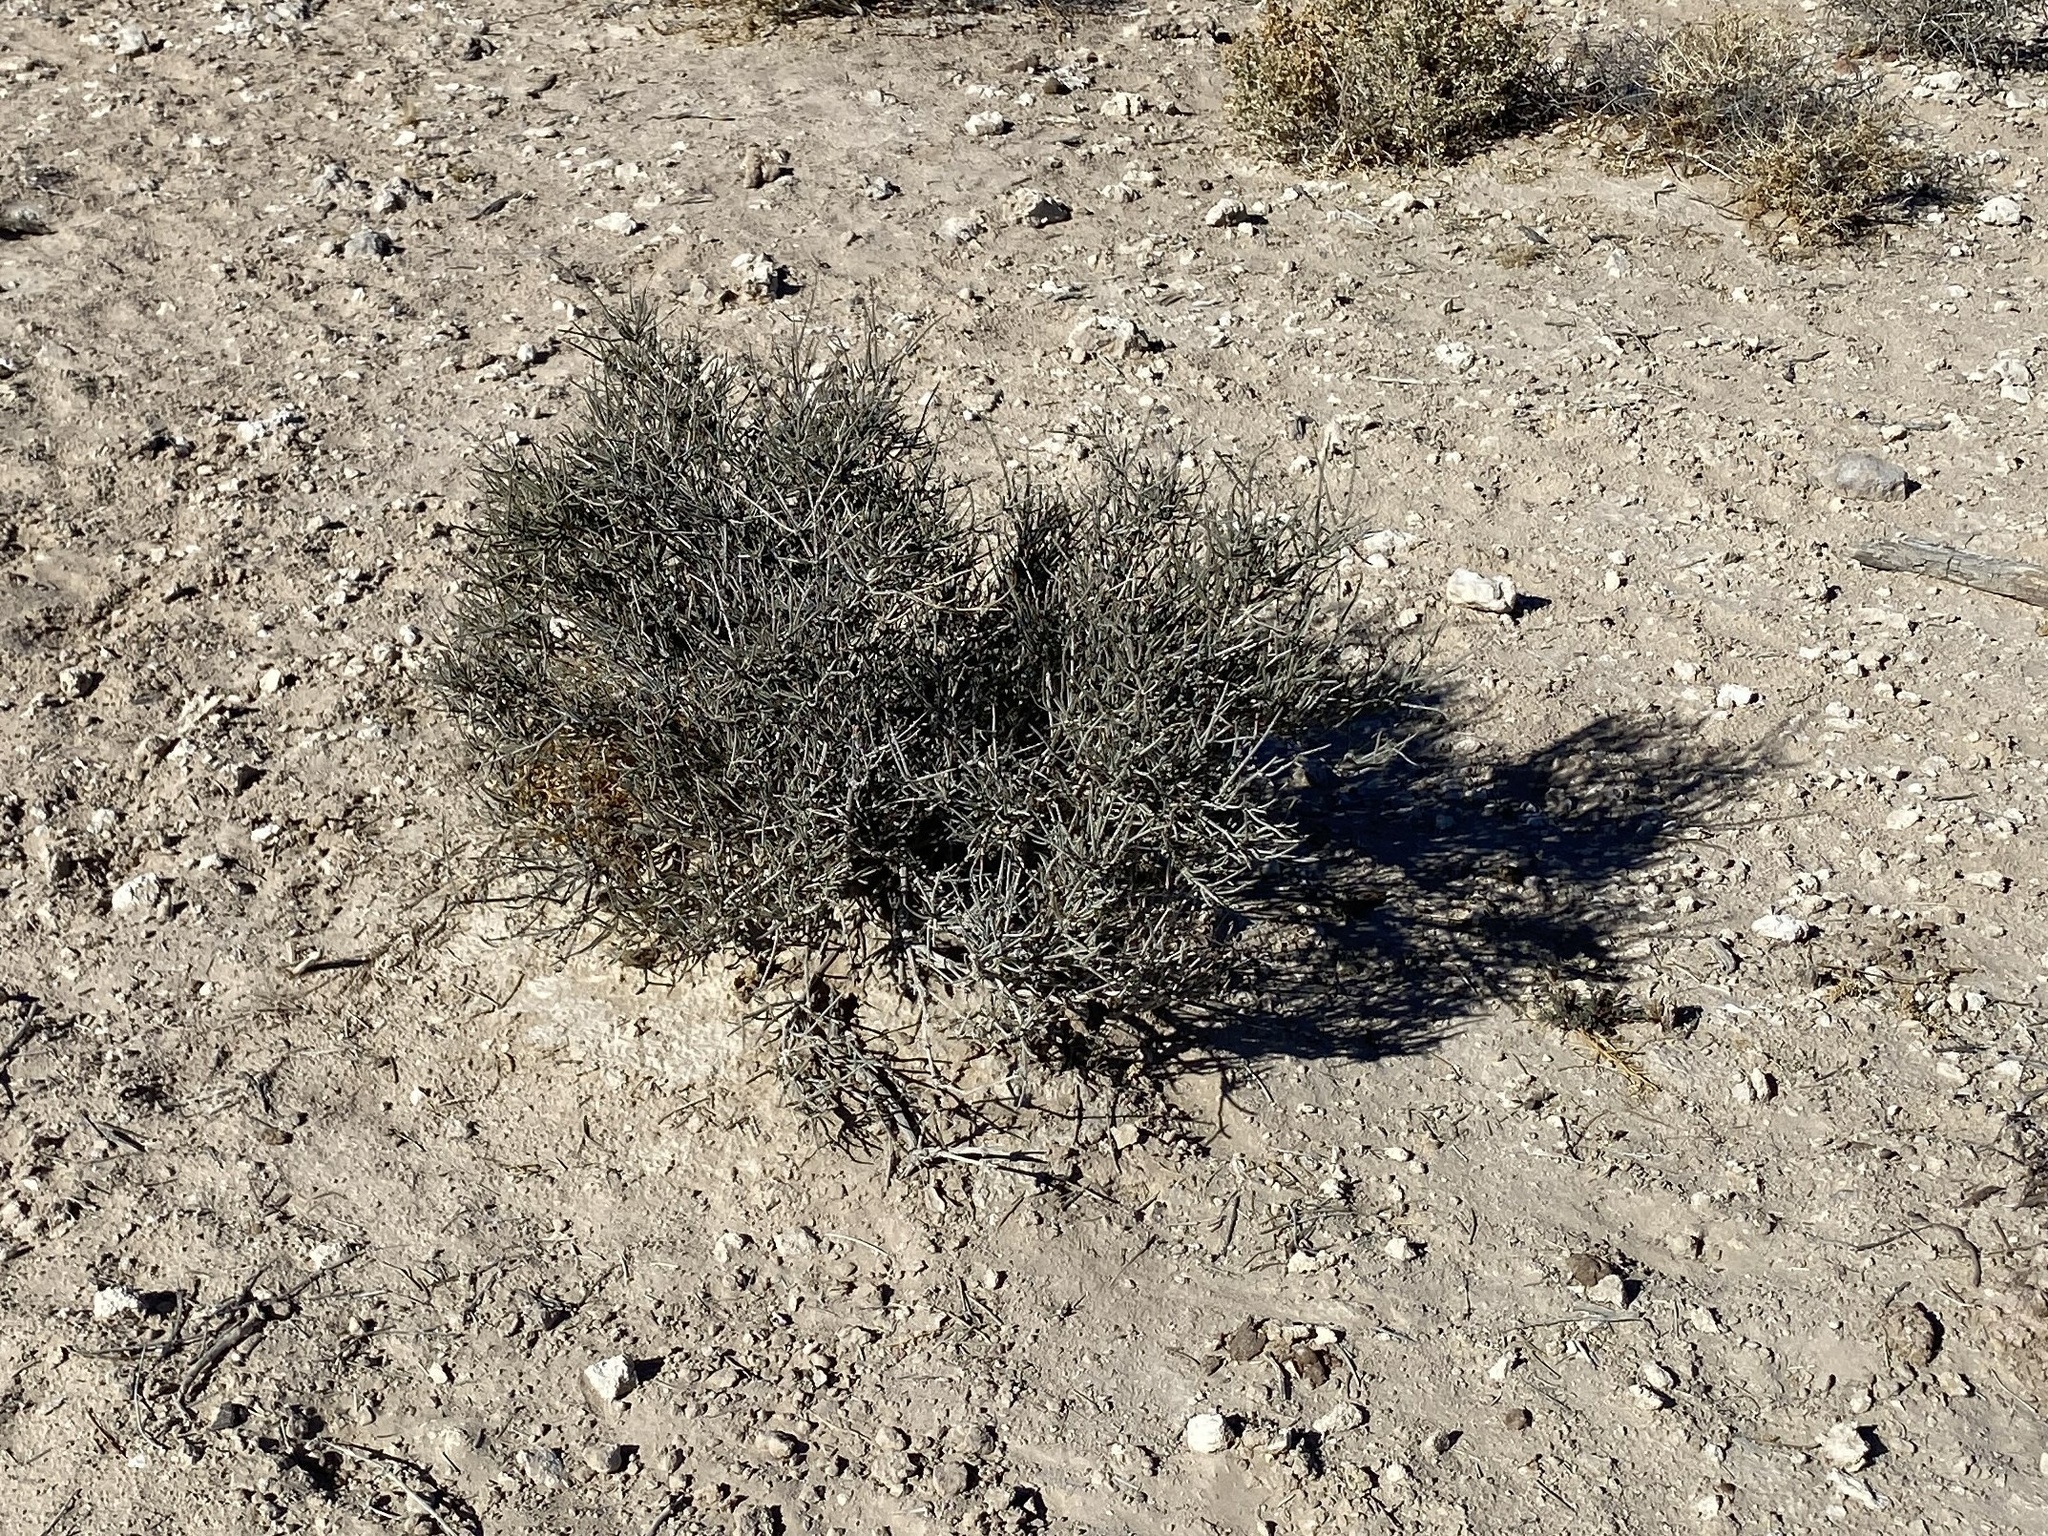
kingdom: Plantae
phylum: Tracheophyta
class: Gnetopsida
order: Ephedrales
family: Ephedraceae
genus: Ephedra
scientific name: Ephedra nevadensis
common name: Gray ephedra
